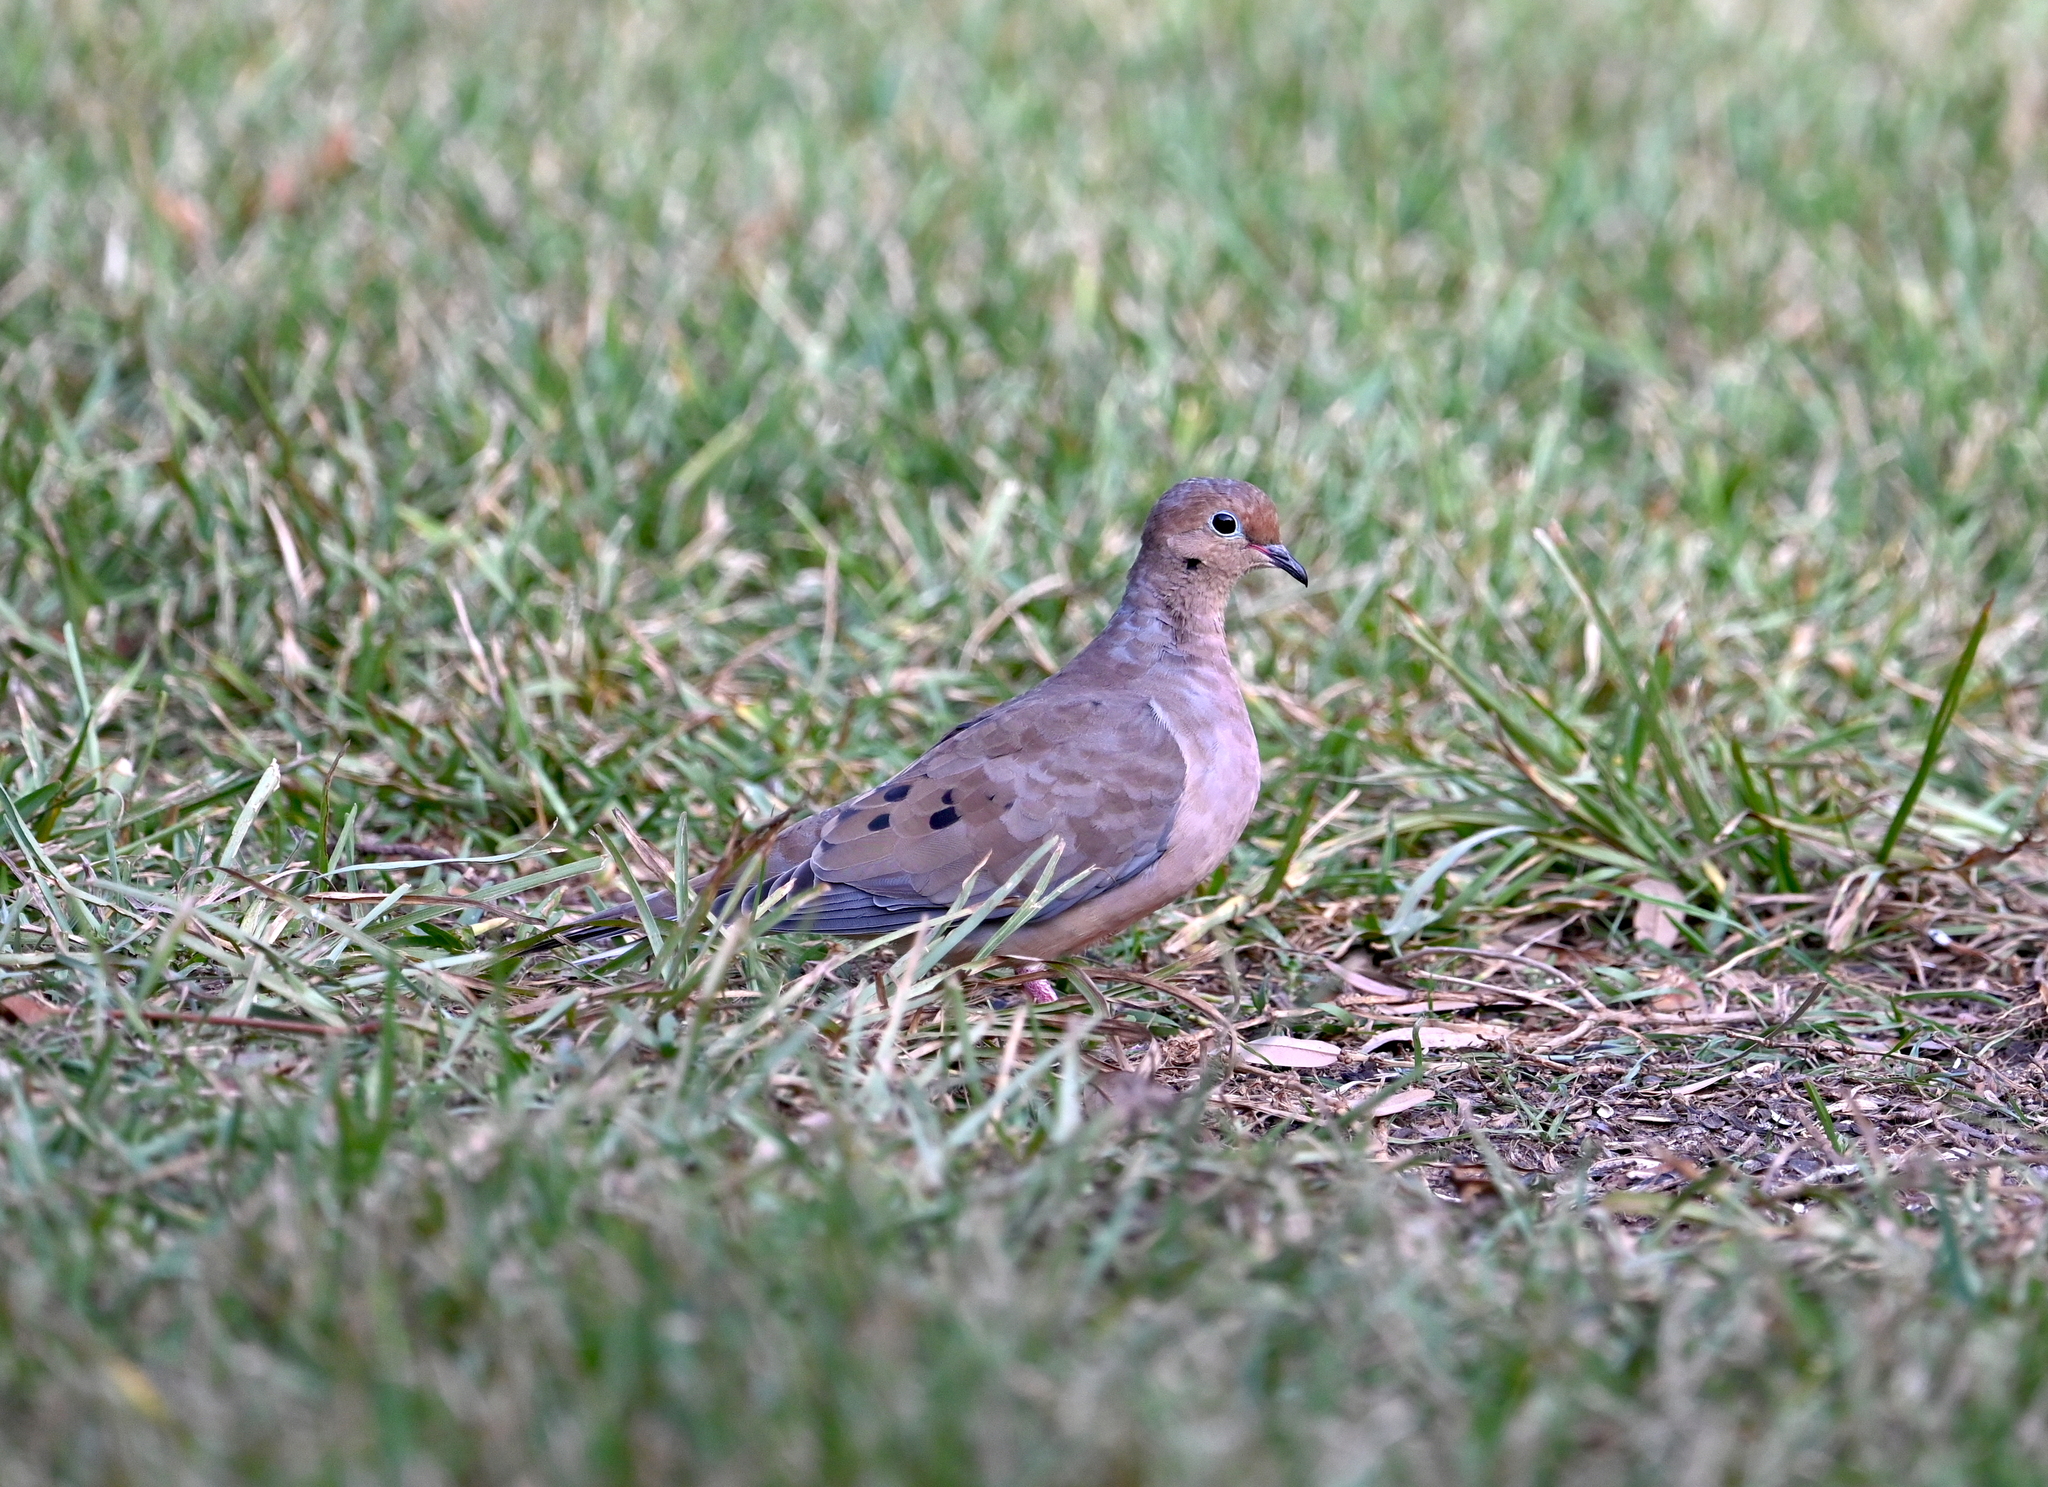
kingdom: Animalia
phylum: Chordata
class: Aves
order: Columbiformes
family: Columbidae
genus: Zenaida
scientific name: Zenaida macroura
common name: Mourning dove
